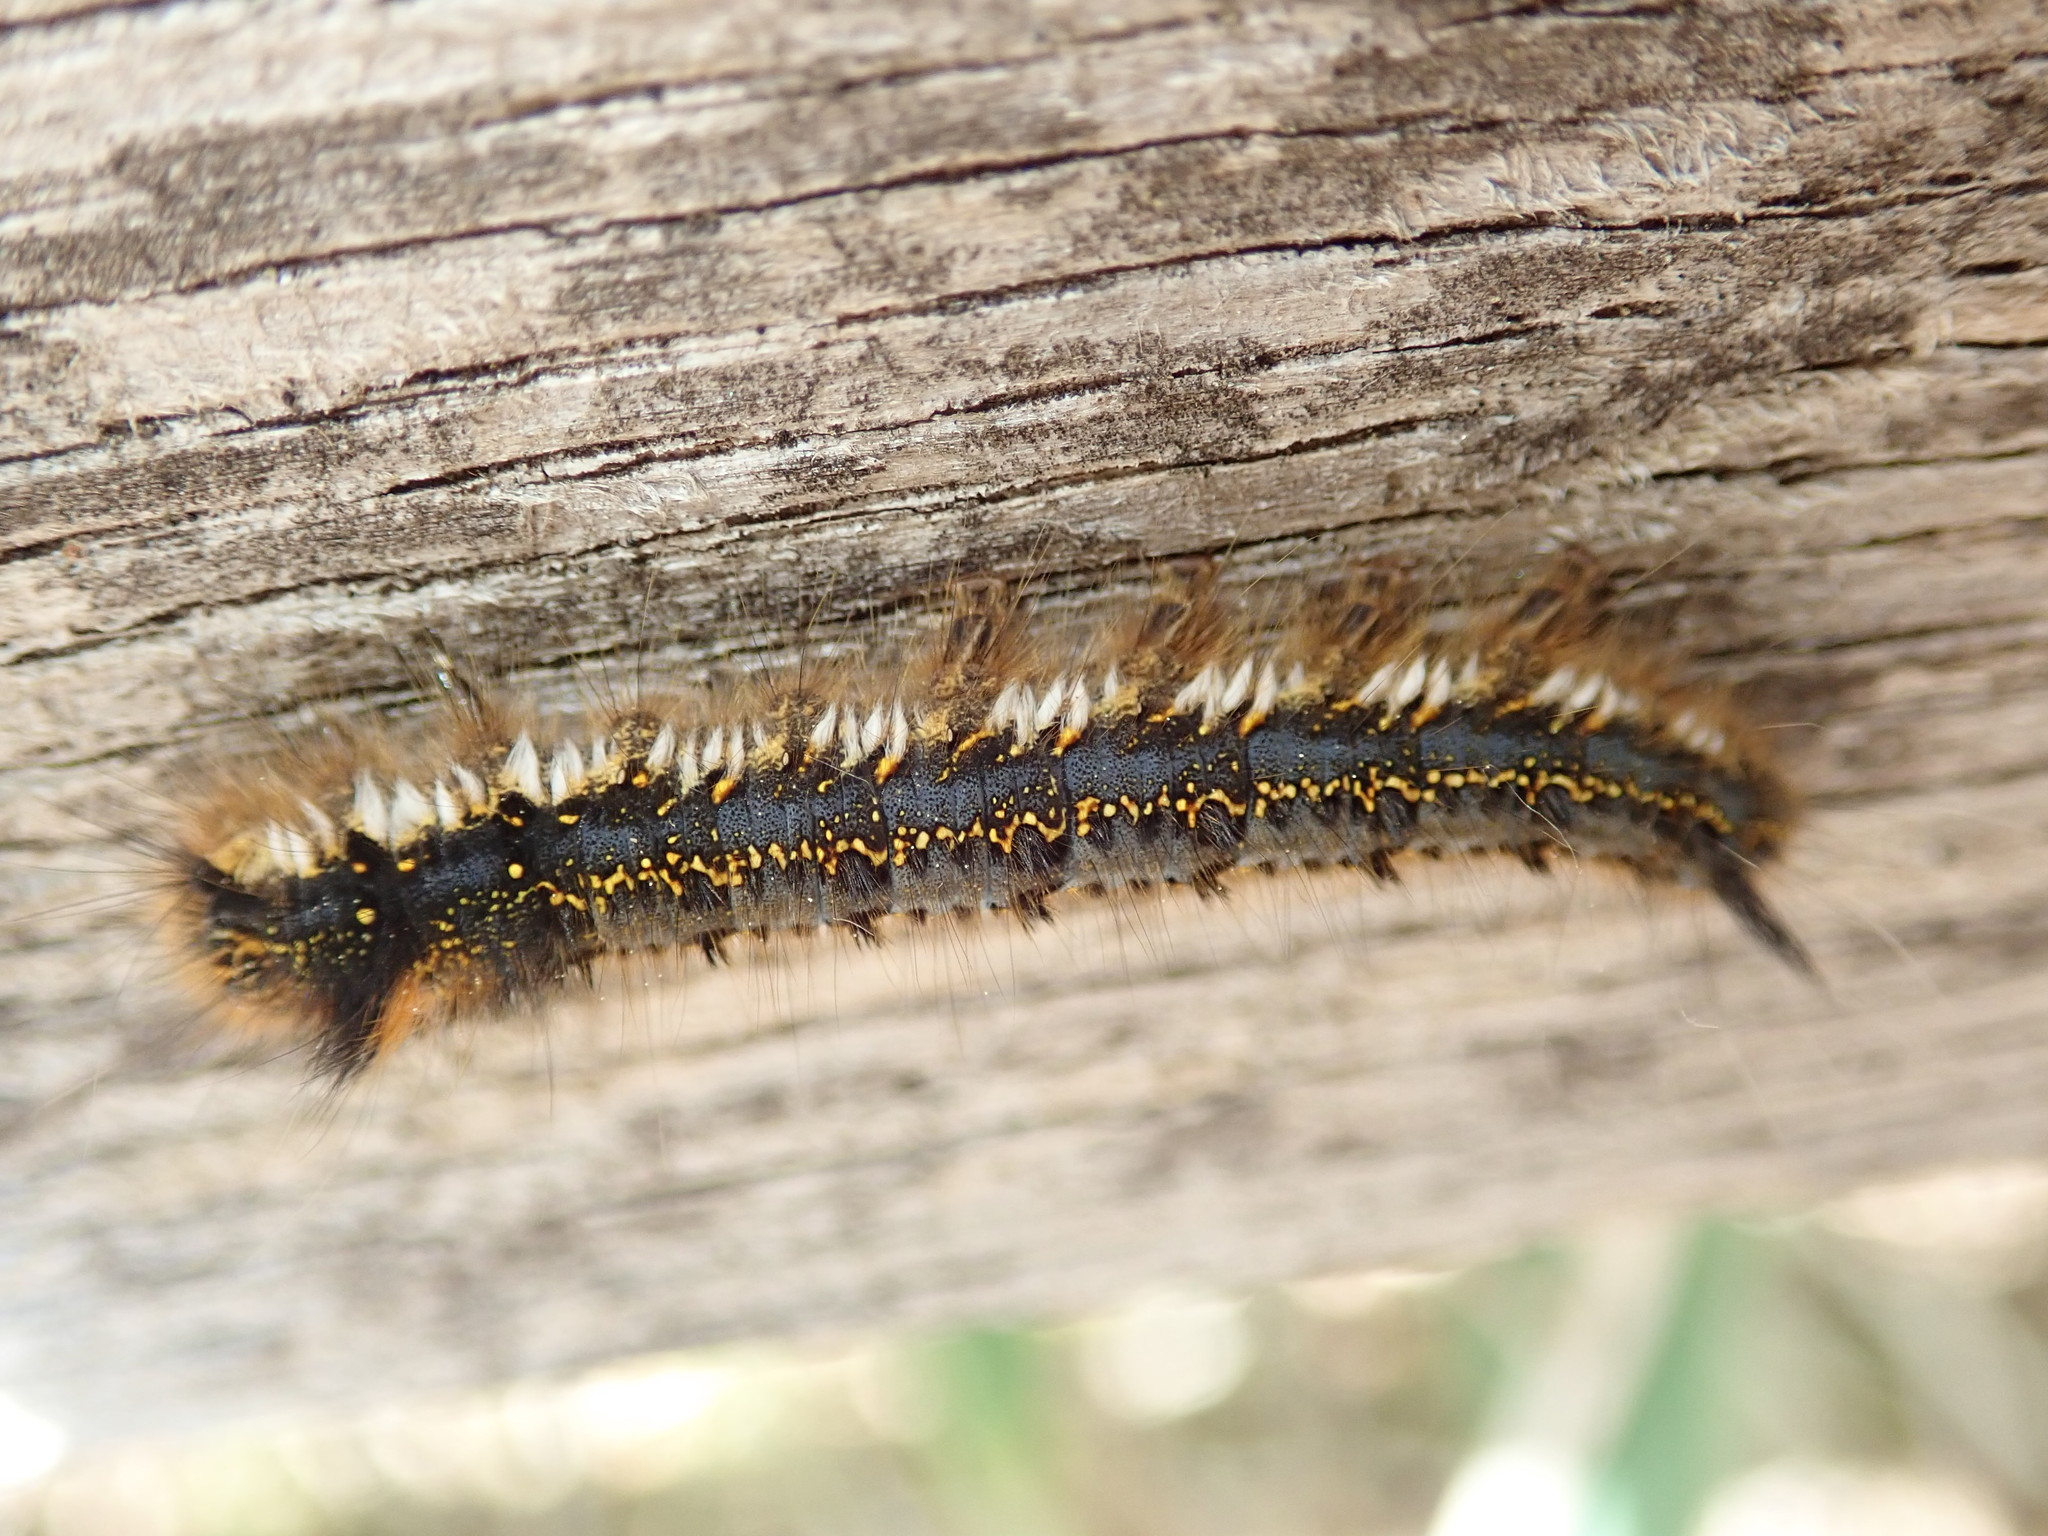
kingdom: Animalia
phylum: Arthropoda
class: Insecta
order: Lepidoptera
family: Lasiocampidae
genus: Euthrix
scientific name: Euthrix potatoria
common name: Drinker
